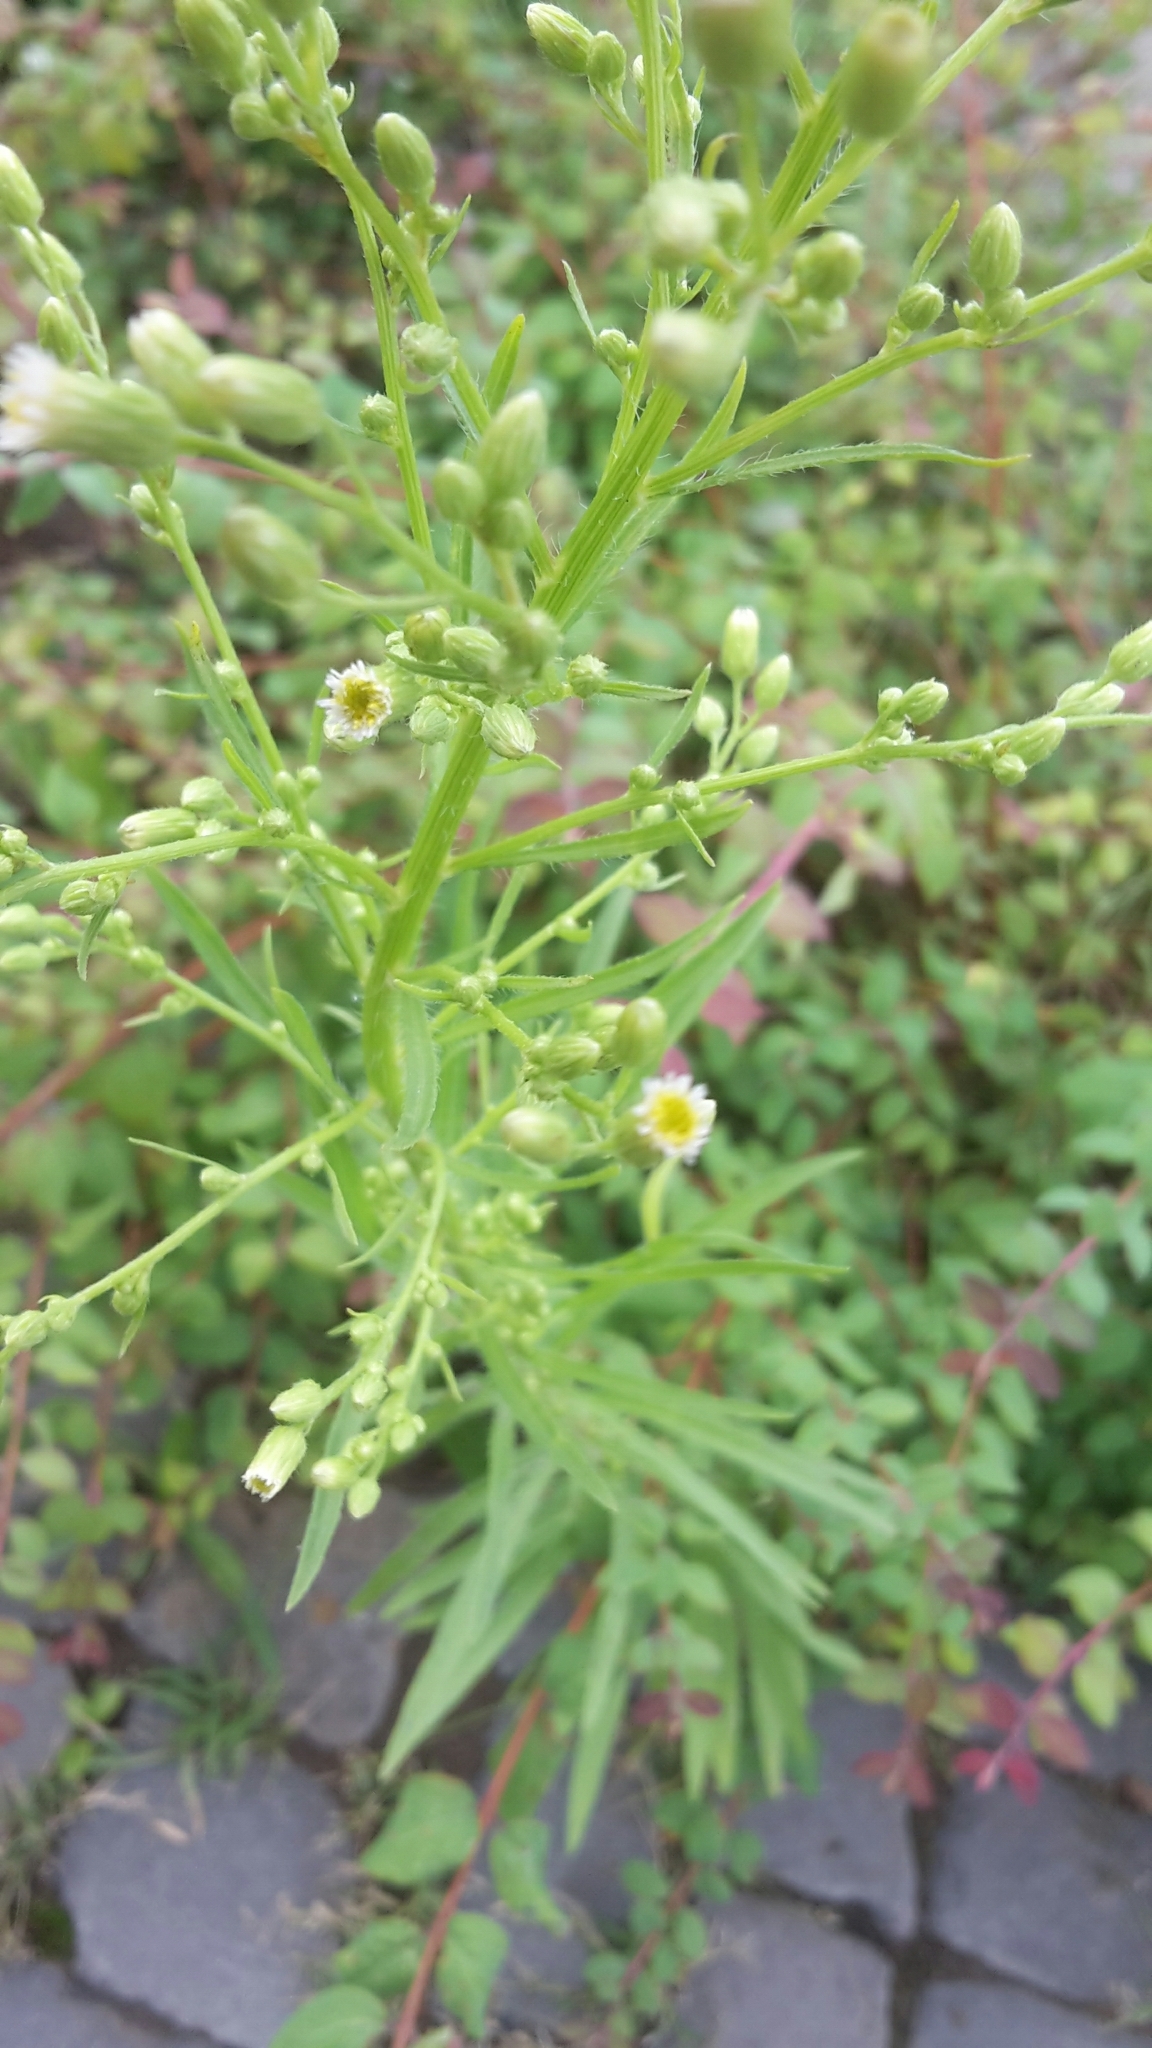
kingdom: Plantae
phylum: Tracheophyta
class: Magnoliopsida
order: Asterales
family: Asteraceae
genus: Erigeron
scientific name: Erigeron canadensis
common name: Canadian fleabane
